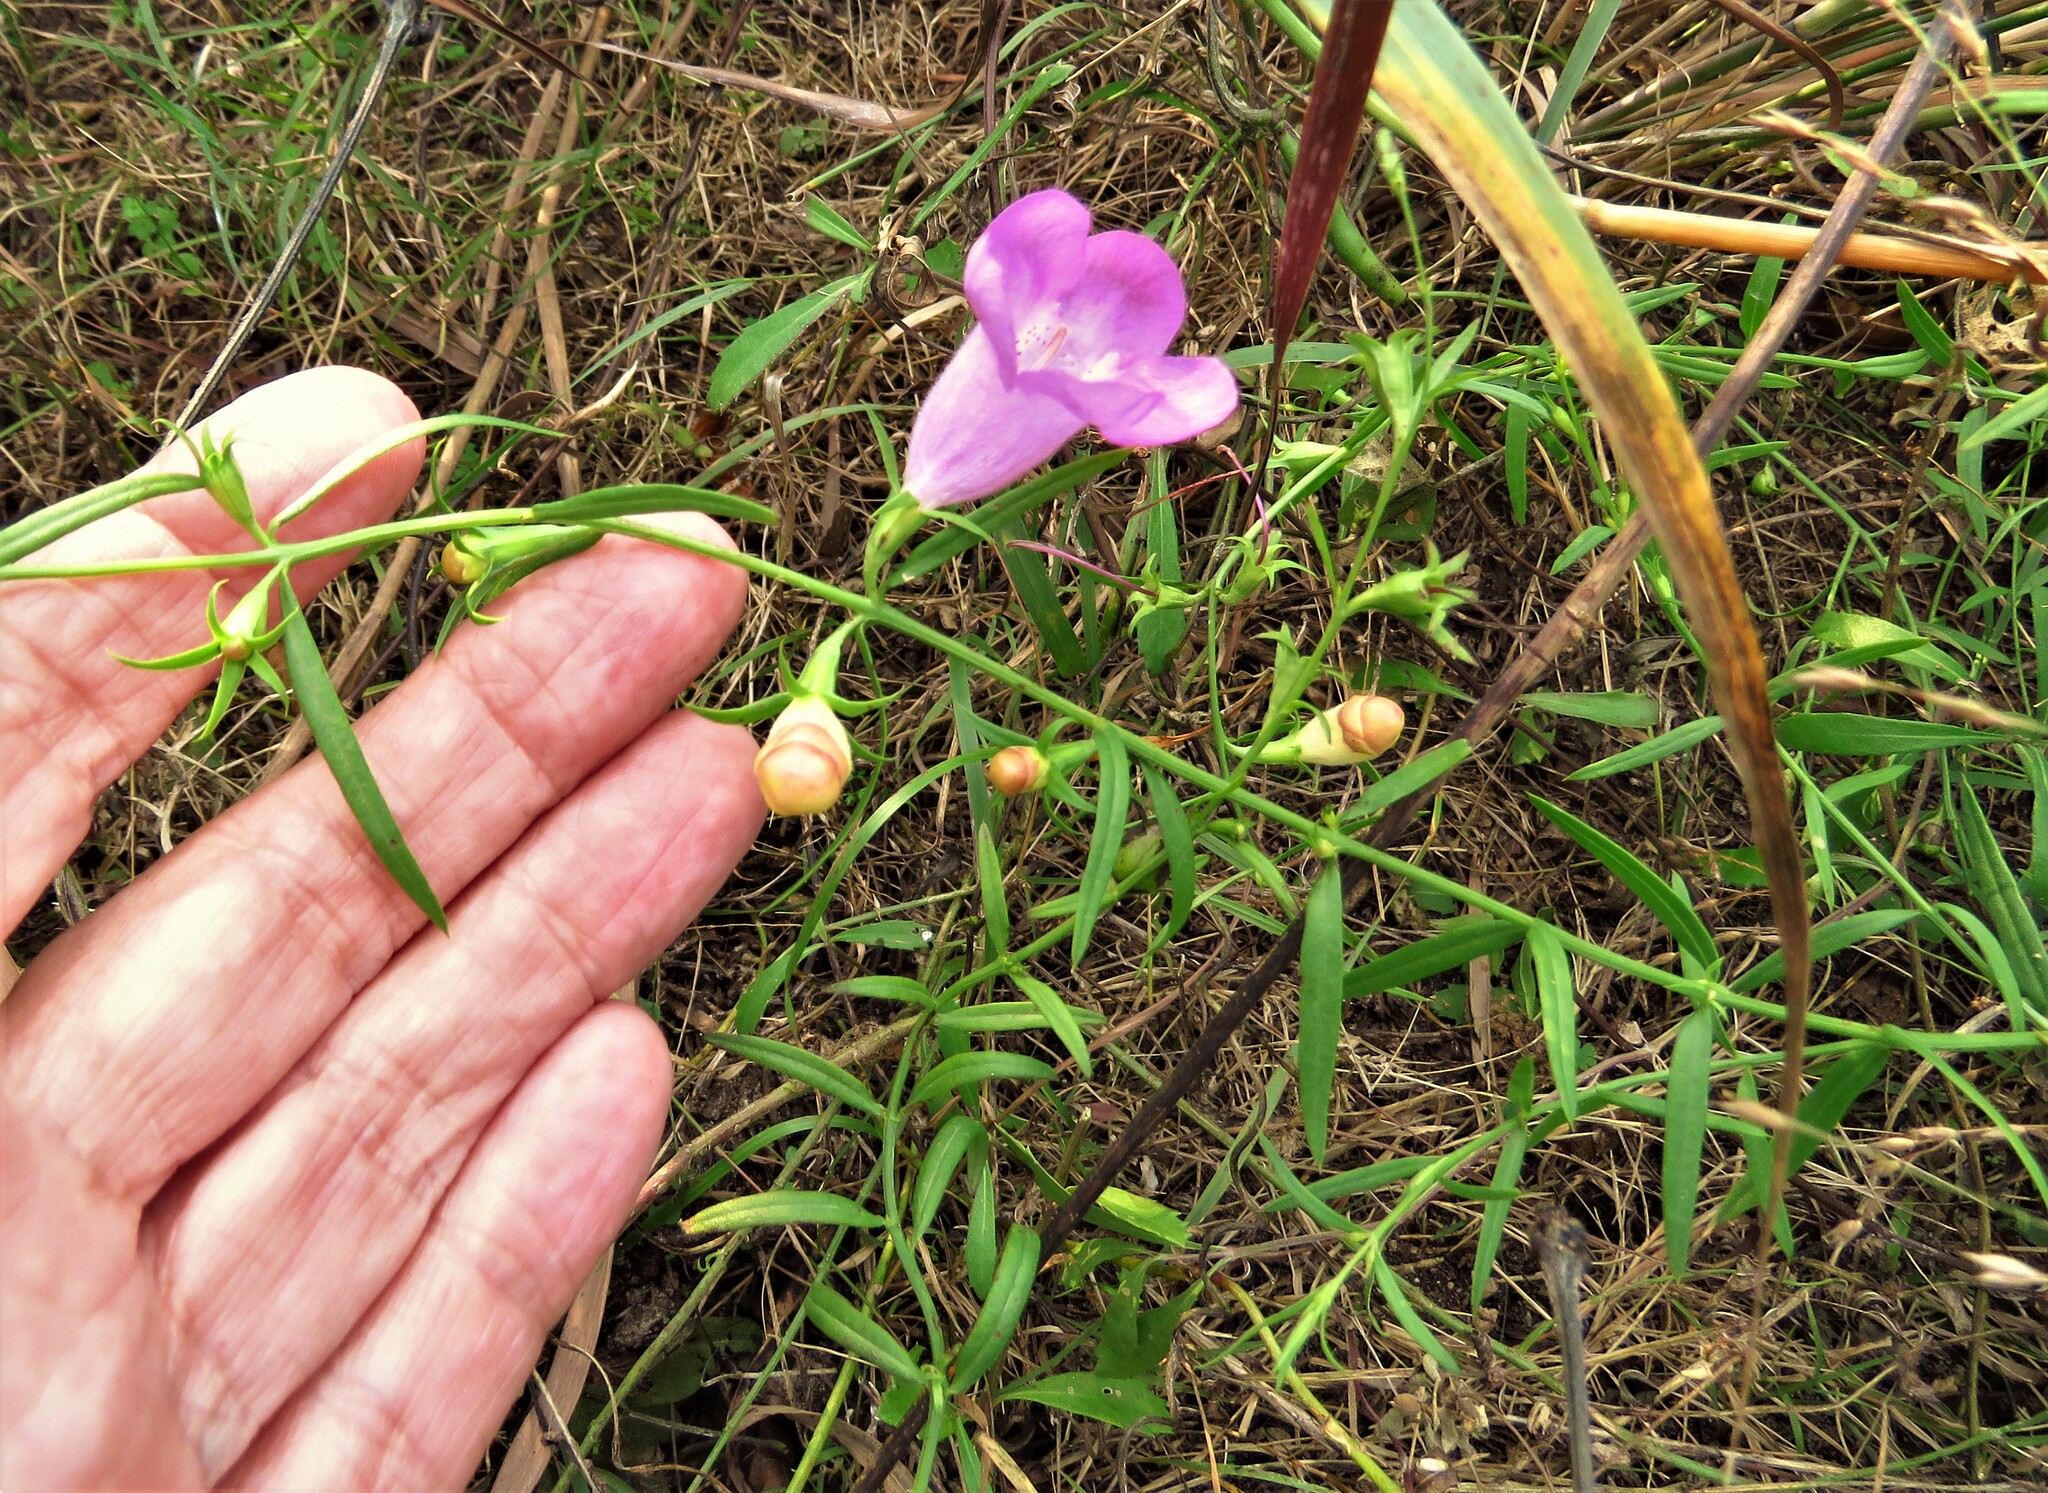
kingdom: Plantae
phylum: Tracheophyta
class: Magnoliopsida
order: Lamiales
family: Orobanchaceae
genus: Agalinis
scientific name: Agalinis heterophylla
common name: Prairie agalinis
